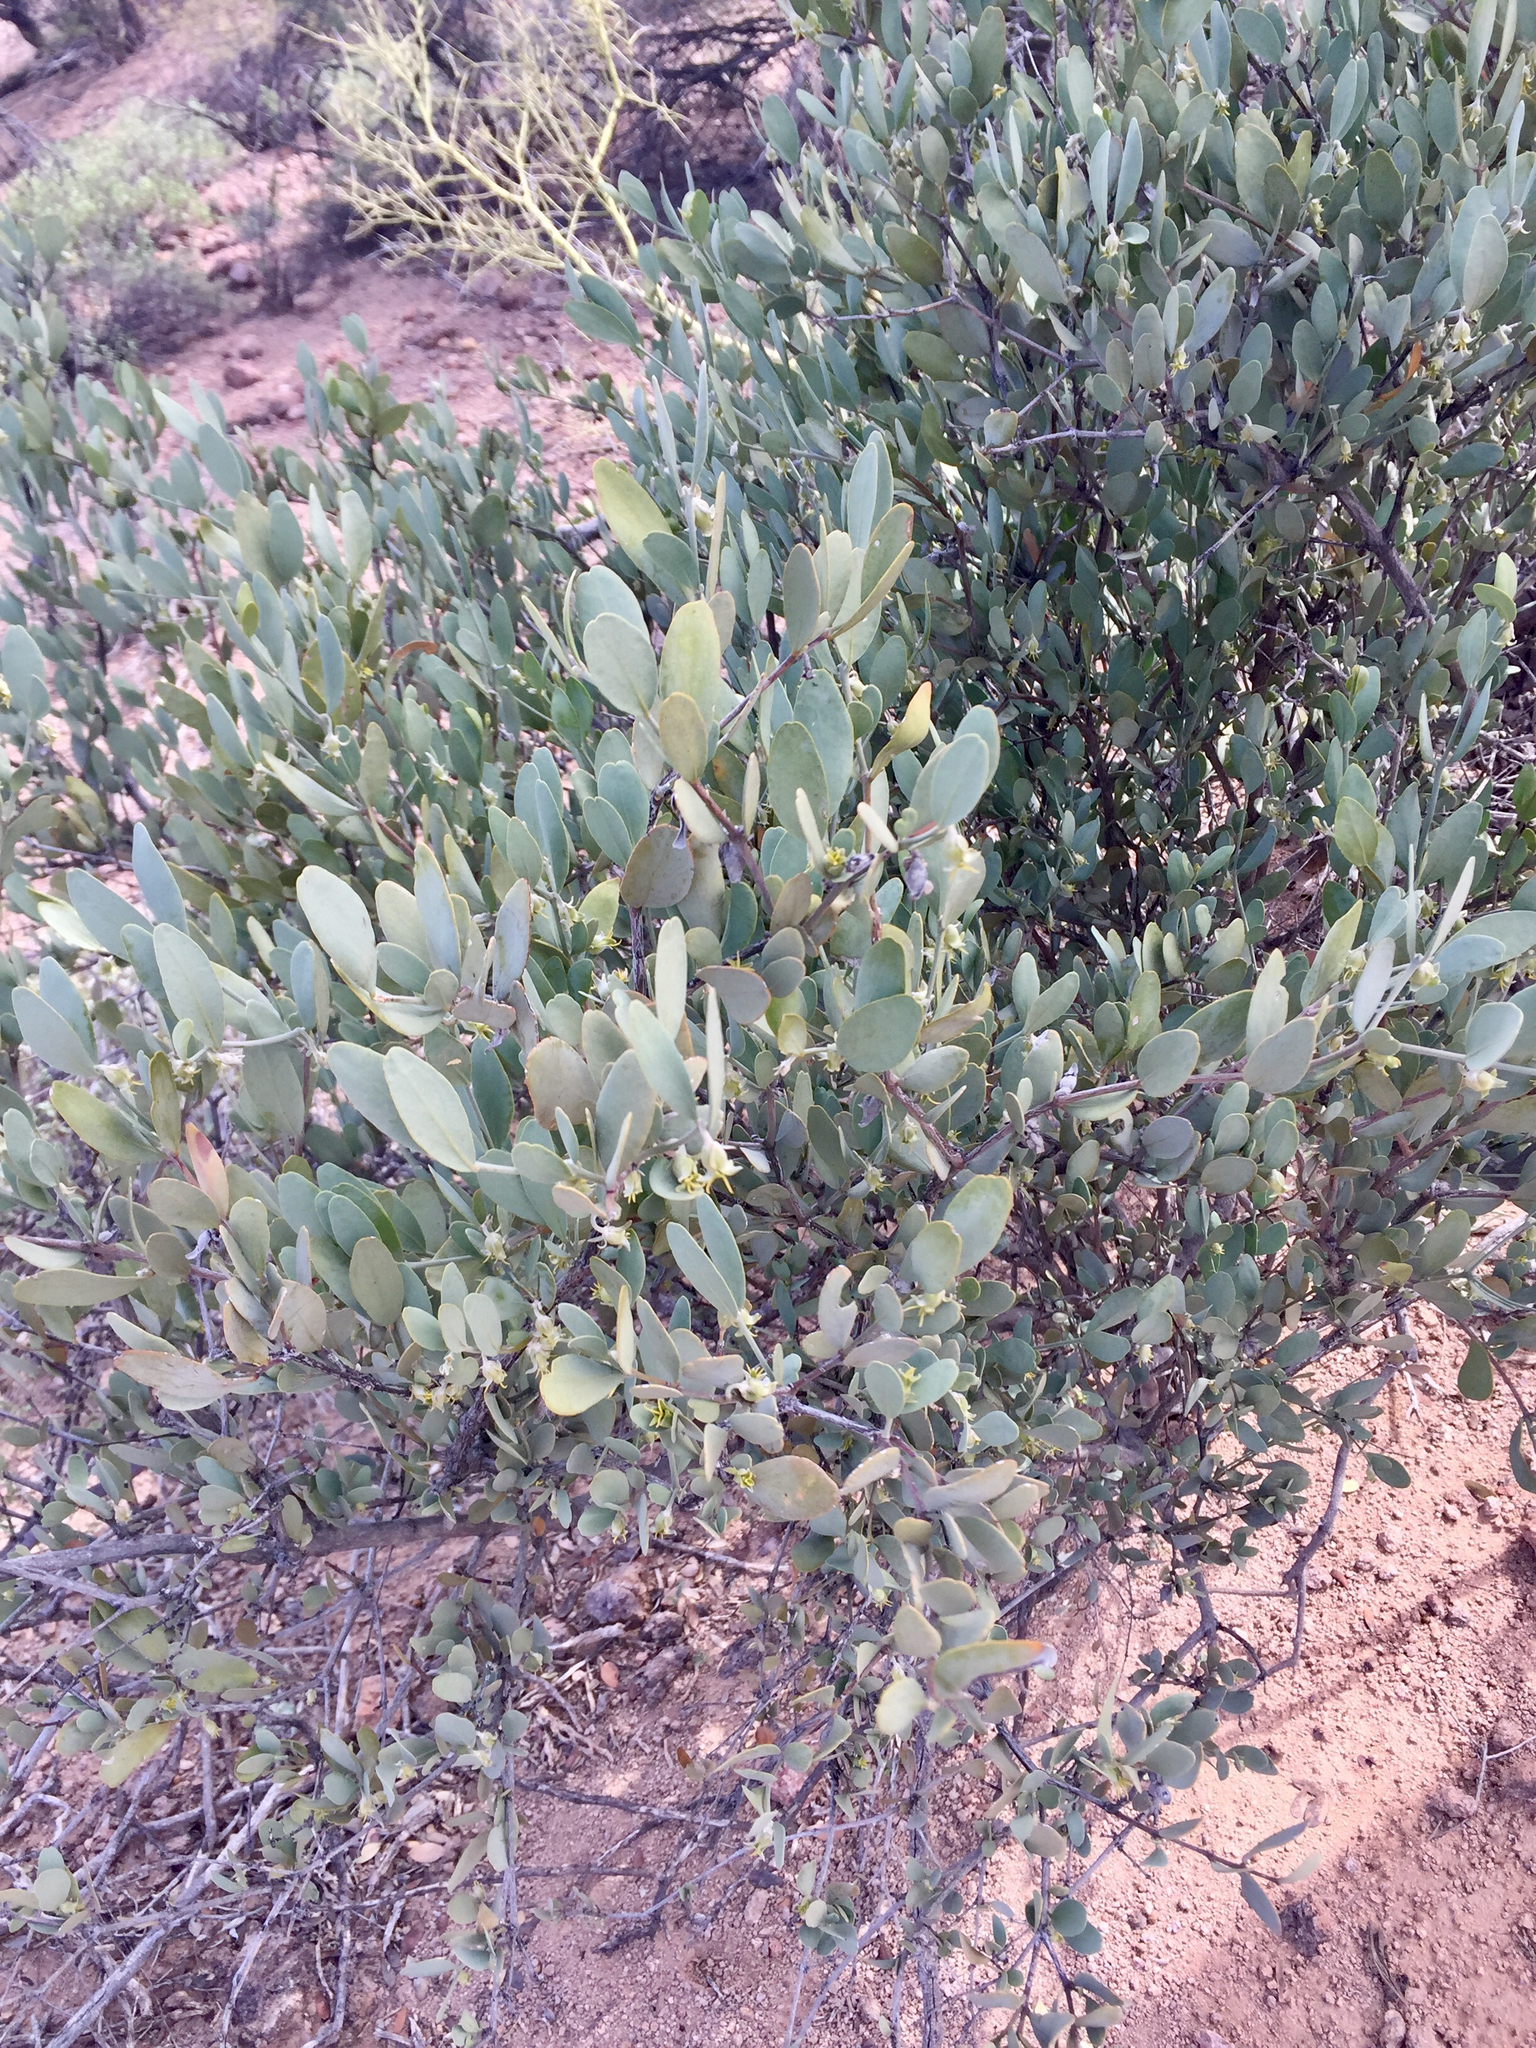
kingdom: Plantae
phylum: Tracheophyta
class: Magnoliopsida
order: Caryophyllales
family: Simmondsiaceae
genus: Simmondsia
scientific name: Simmondsia chinensis
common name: Jojoba
